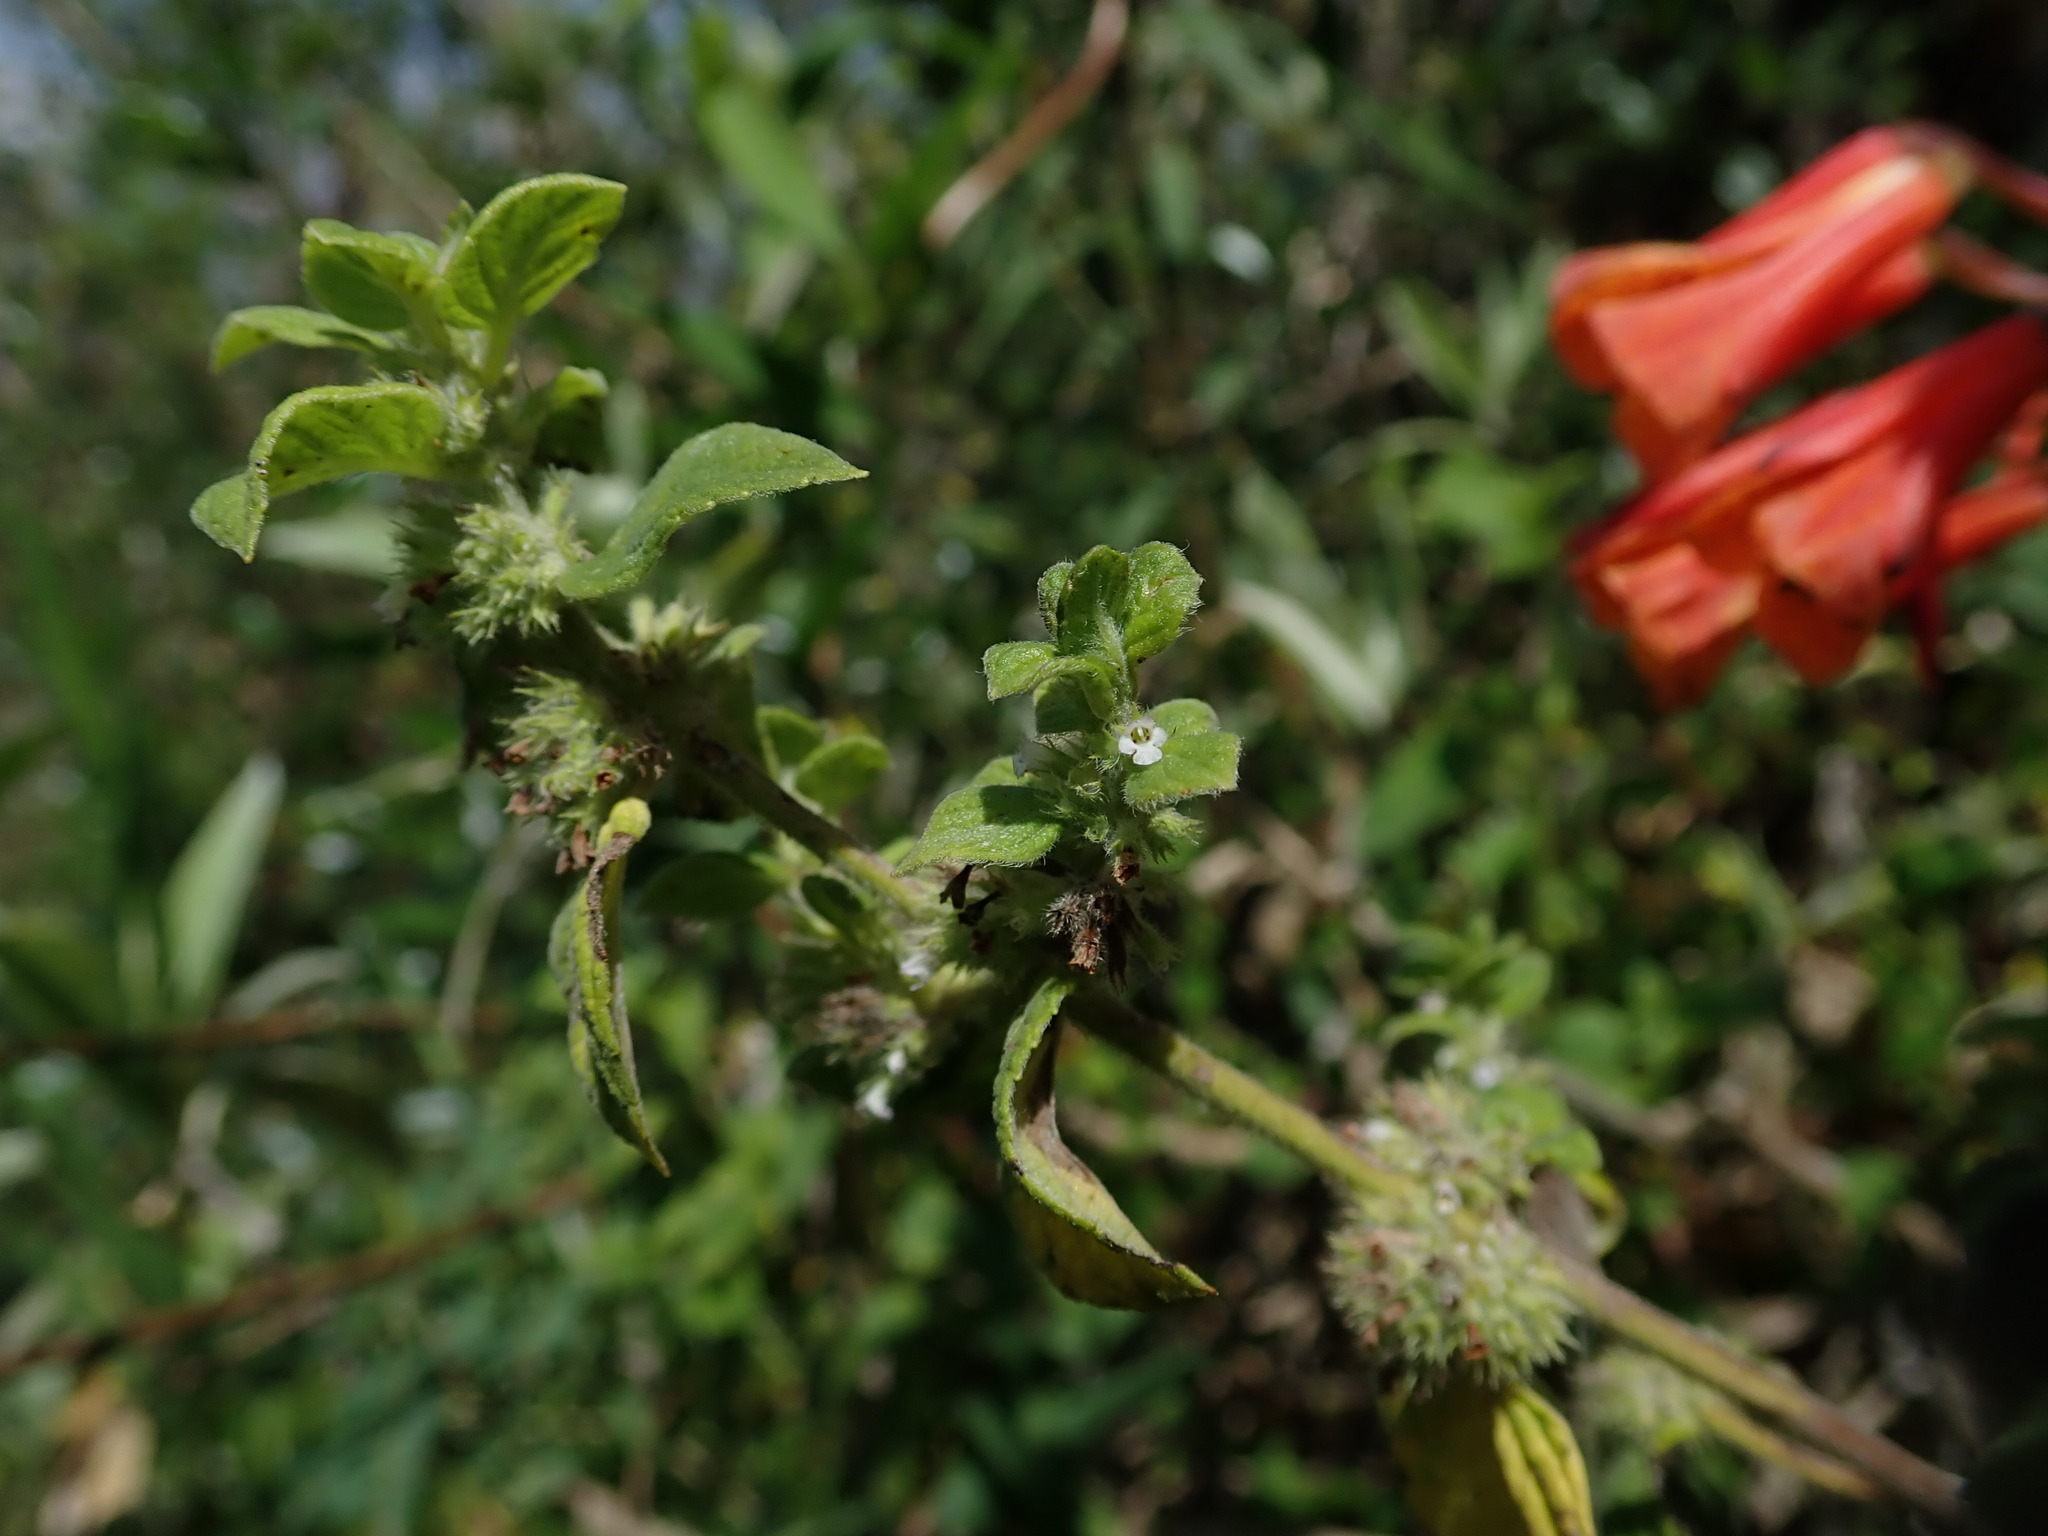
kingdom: Plantae
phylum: Tracheophyta
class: Magnoliopsida
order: Lamiales
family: Lamiaceae
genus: Minthostachys
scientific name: Minthostachys mollis
